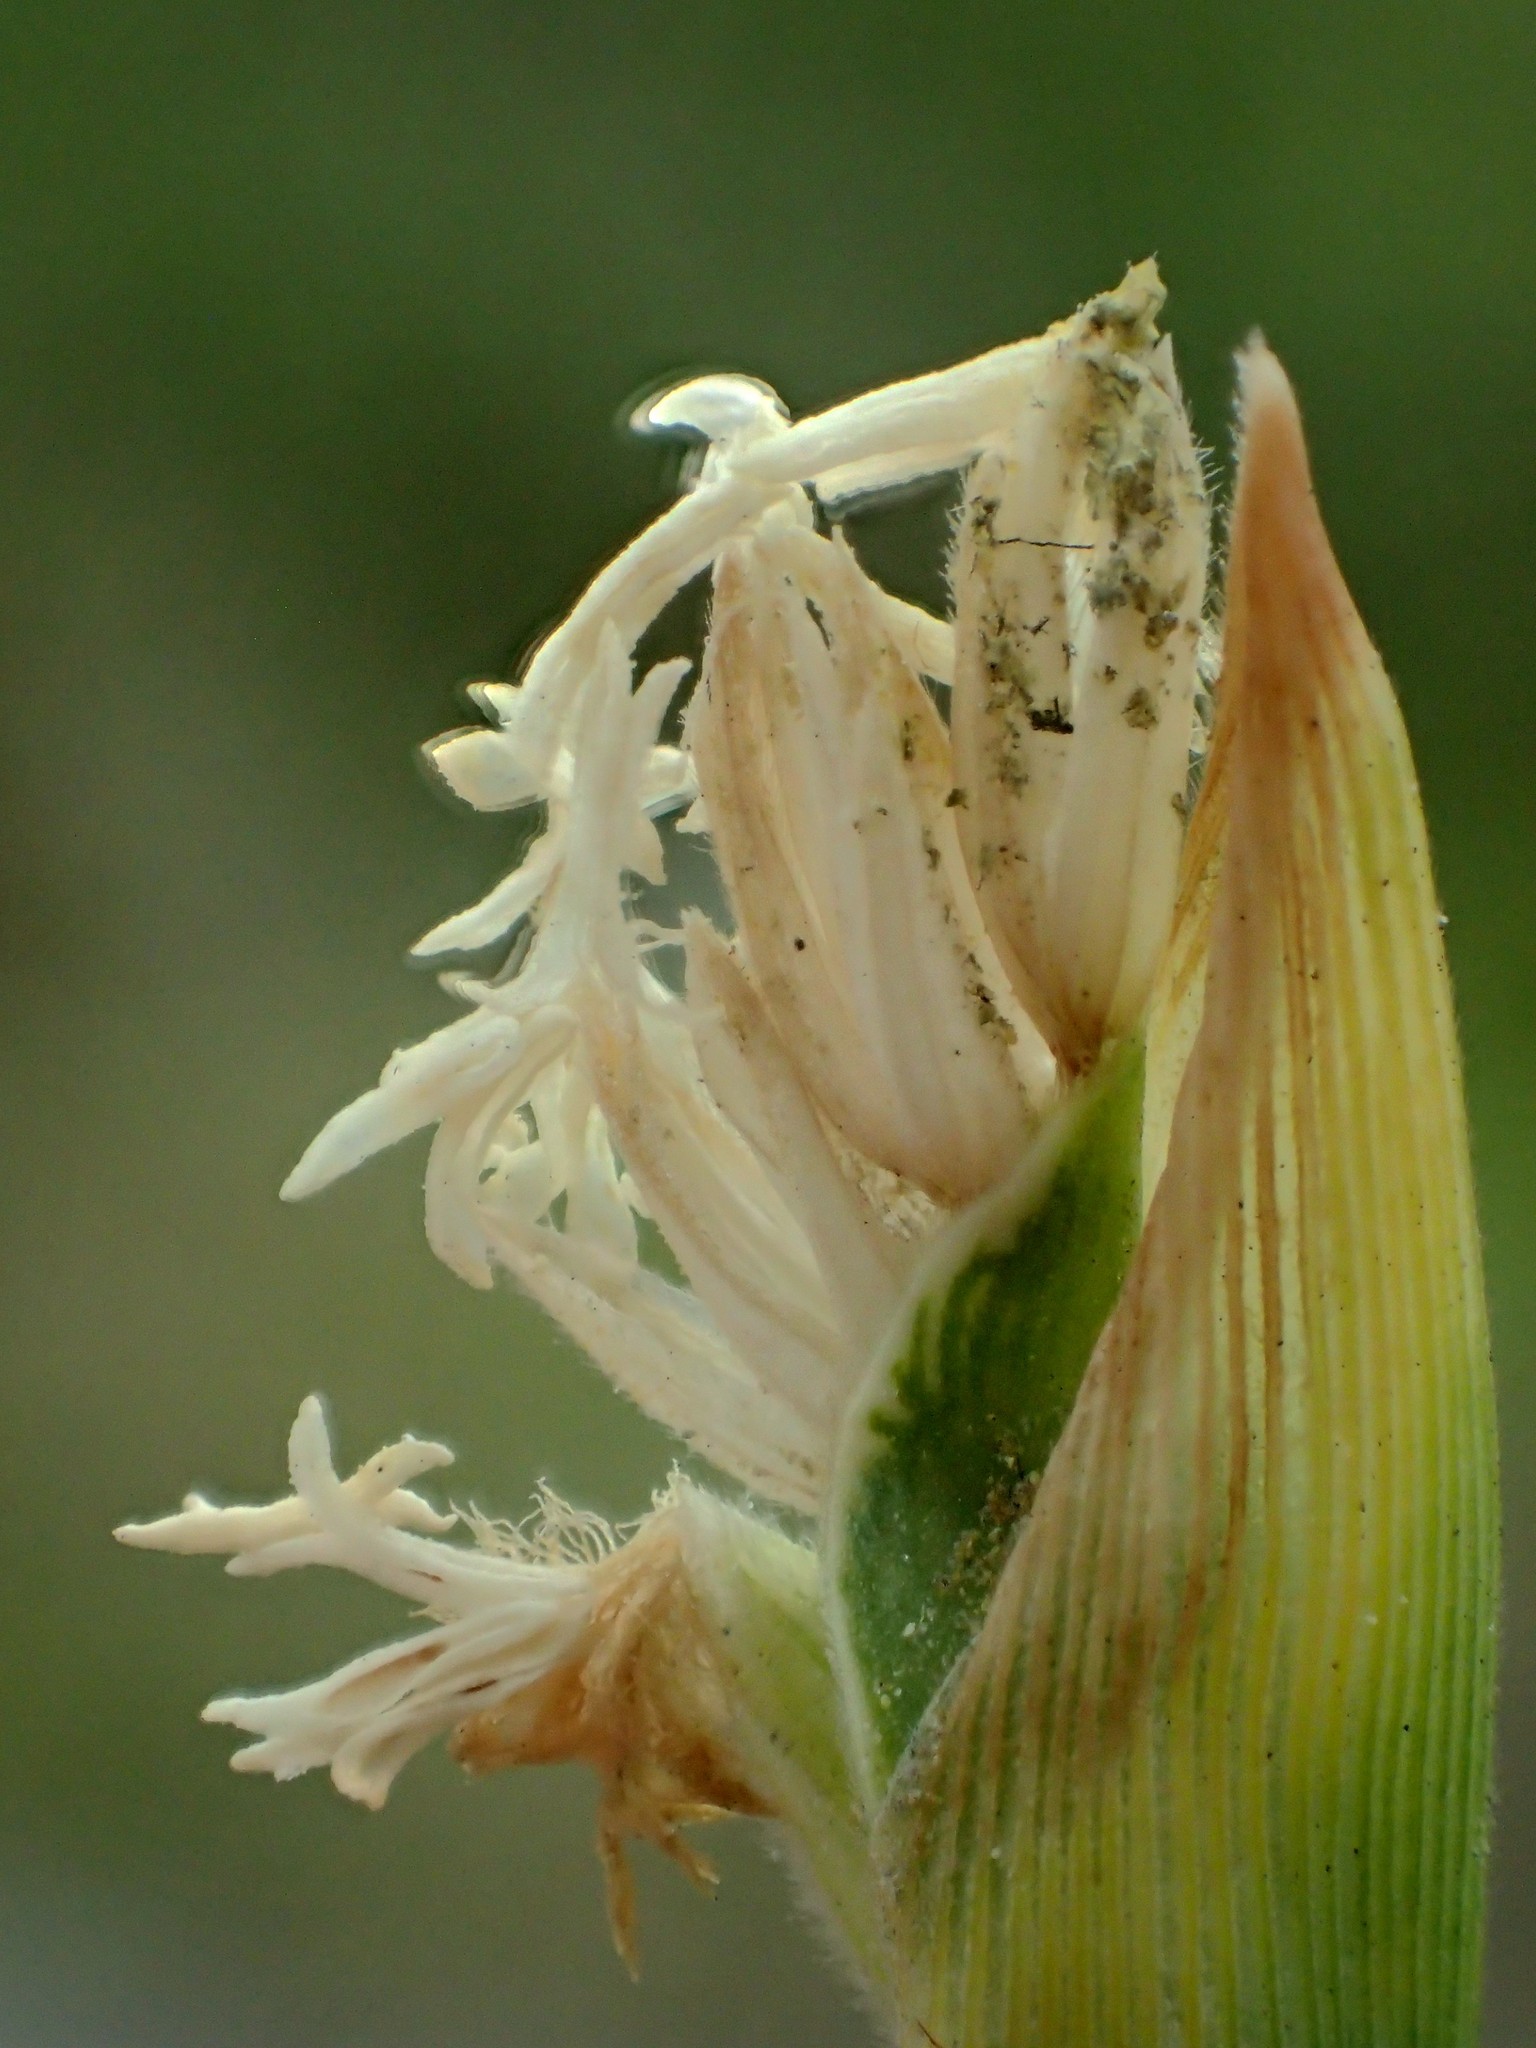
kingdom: Plantae
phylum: Tracheophyta
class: Liliopsida
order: Poales
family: Poaceae
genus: Thuarea
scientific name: Thuarea involuta
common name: Tropical beach grass
